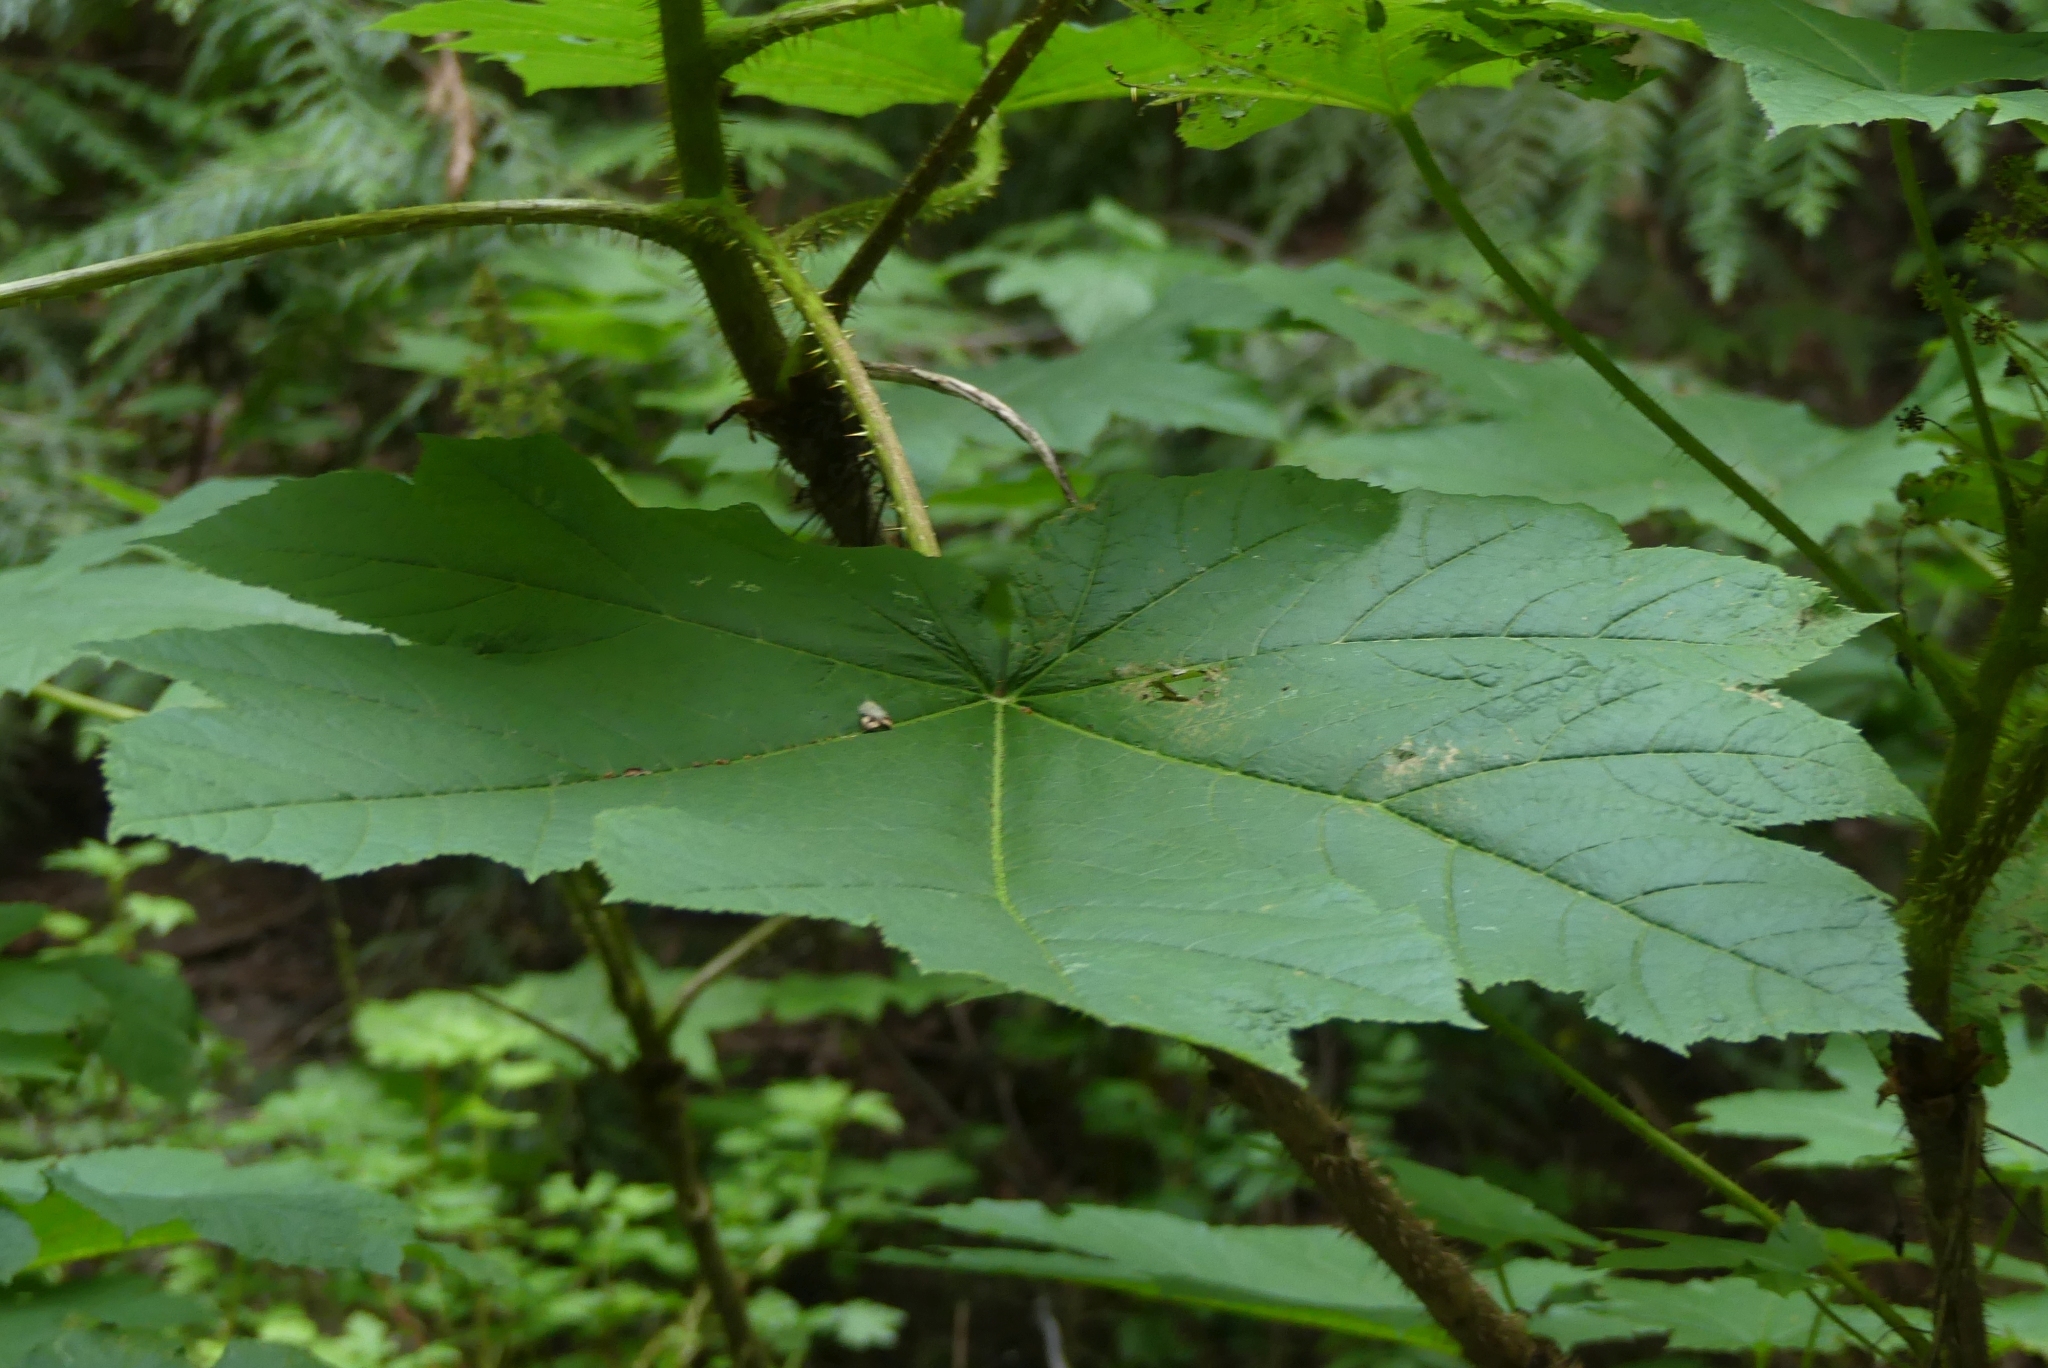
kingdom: Plantae
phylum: Tracheophyta
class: Magnoliopsida
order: Apiales
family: Araliaceae
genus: Oplopanax
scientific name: Oplopanax horridus
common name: Devil's walking-stick
